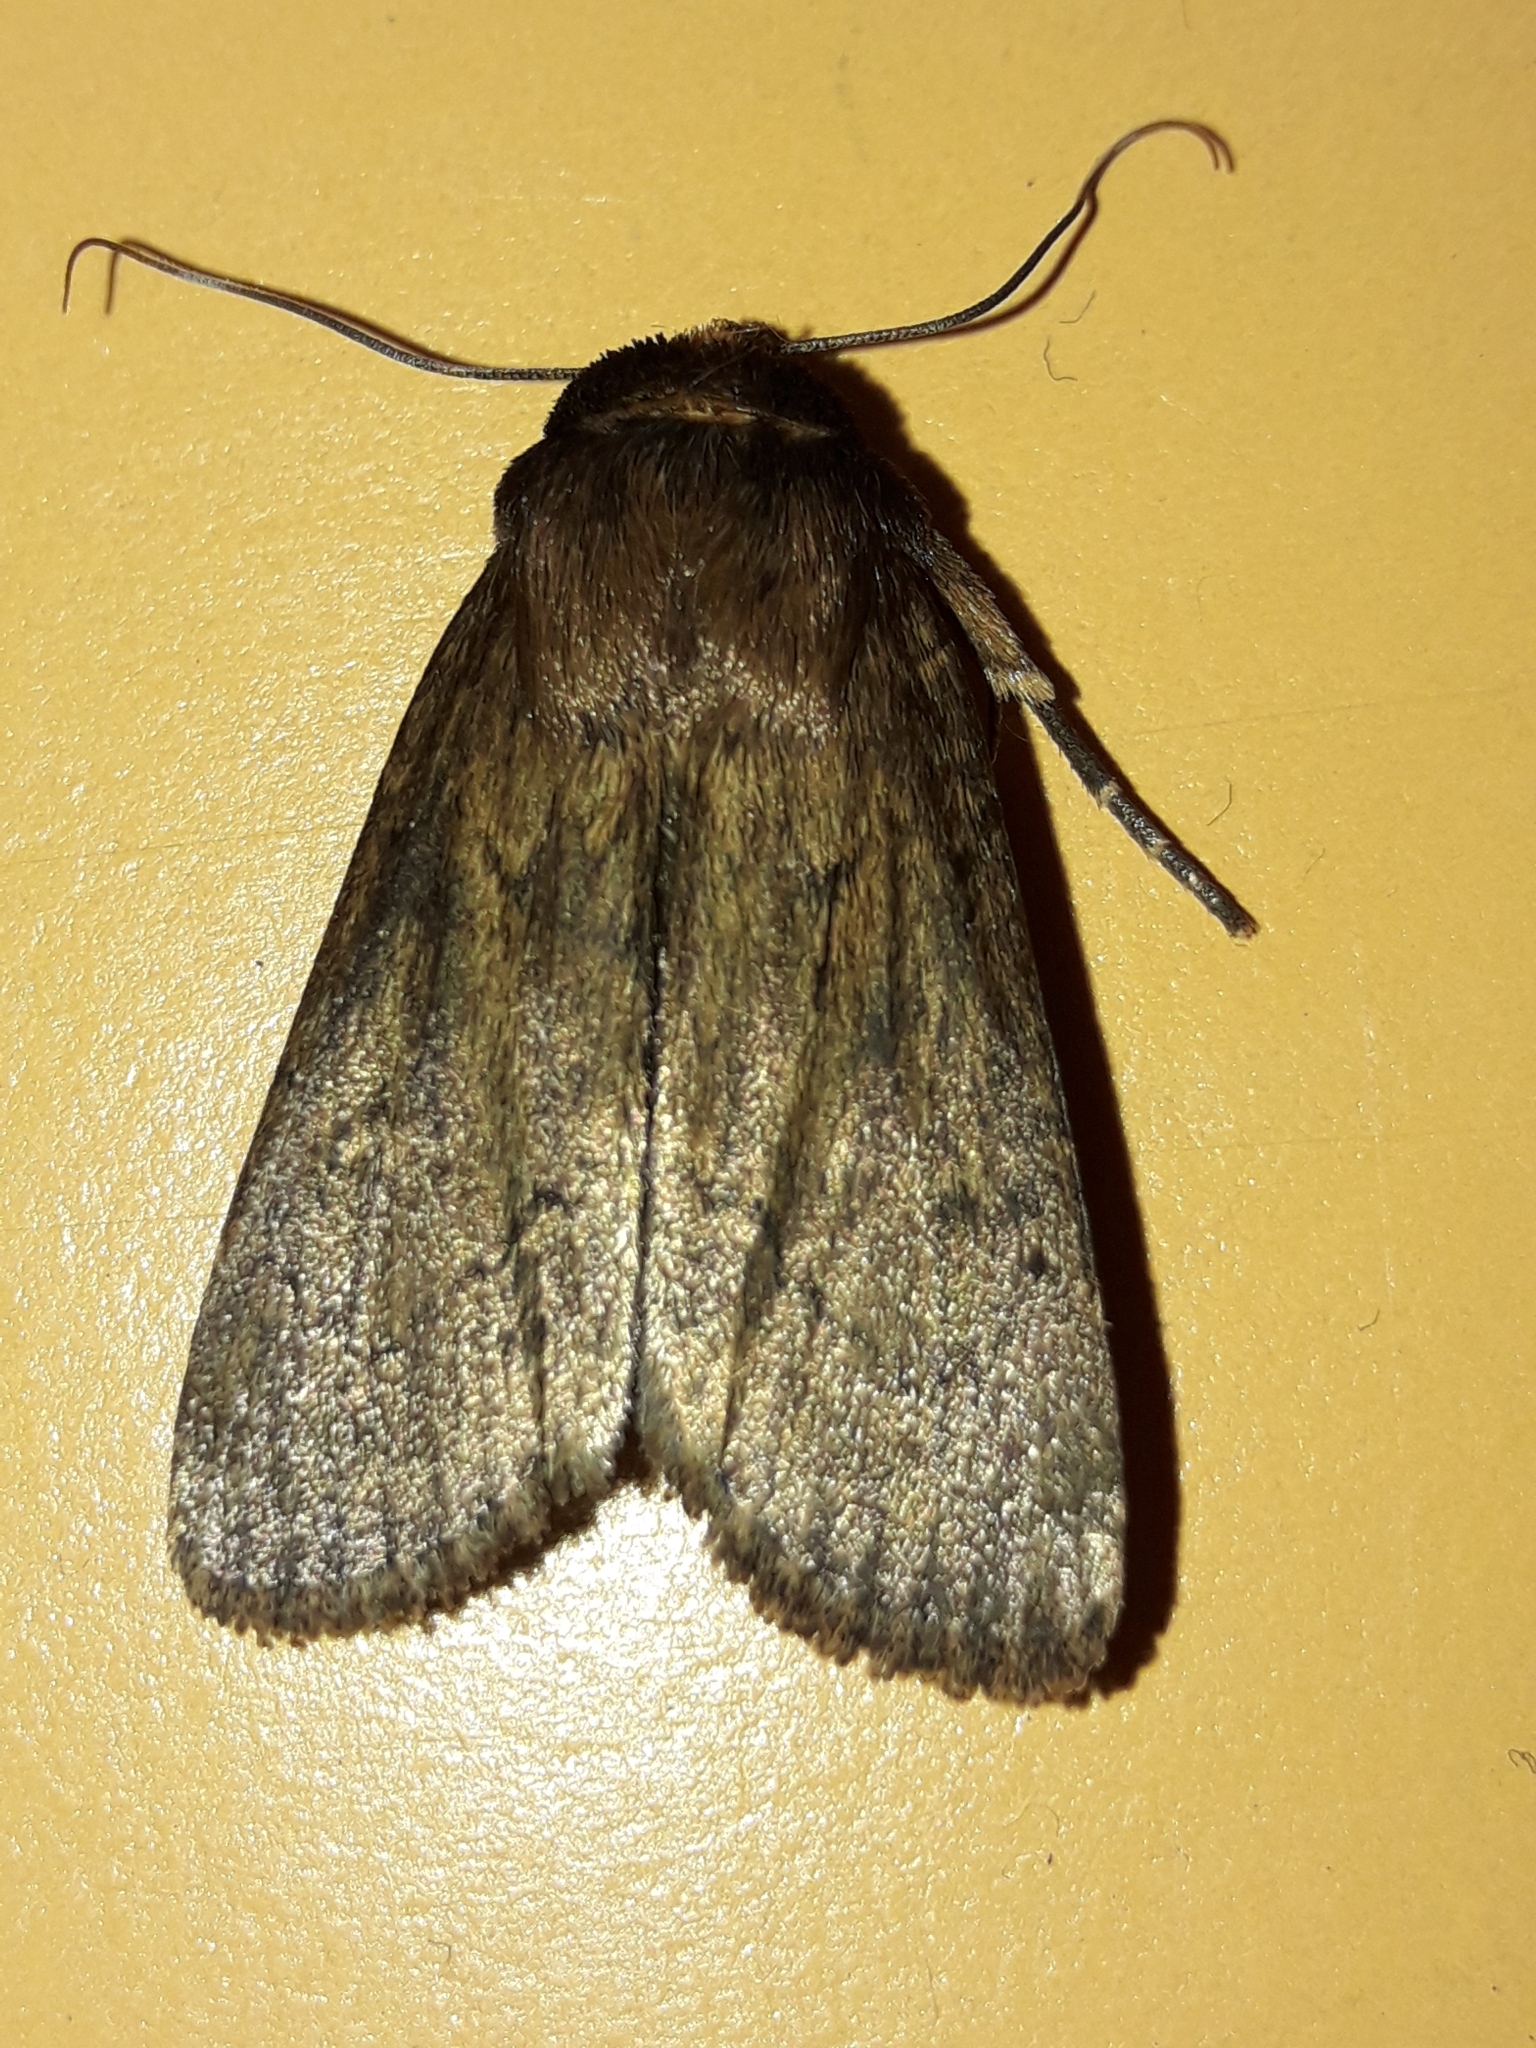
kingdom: Animalia
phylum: Arthropoda
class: Insecta
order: Lepidoptera
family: Noctuidae
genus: Bityla
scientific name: Bityla defigurata
